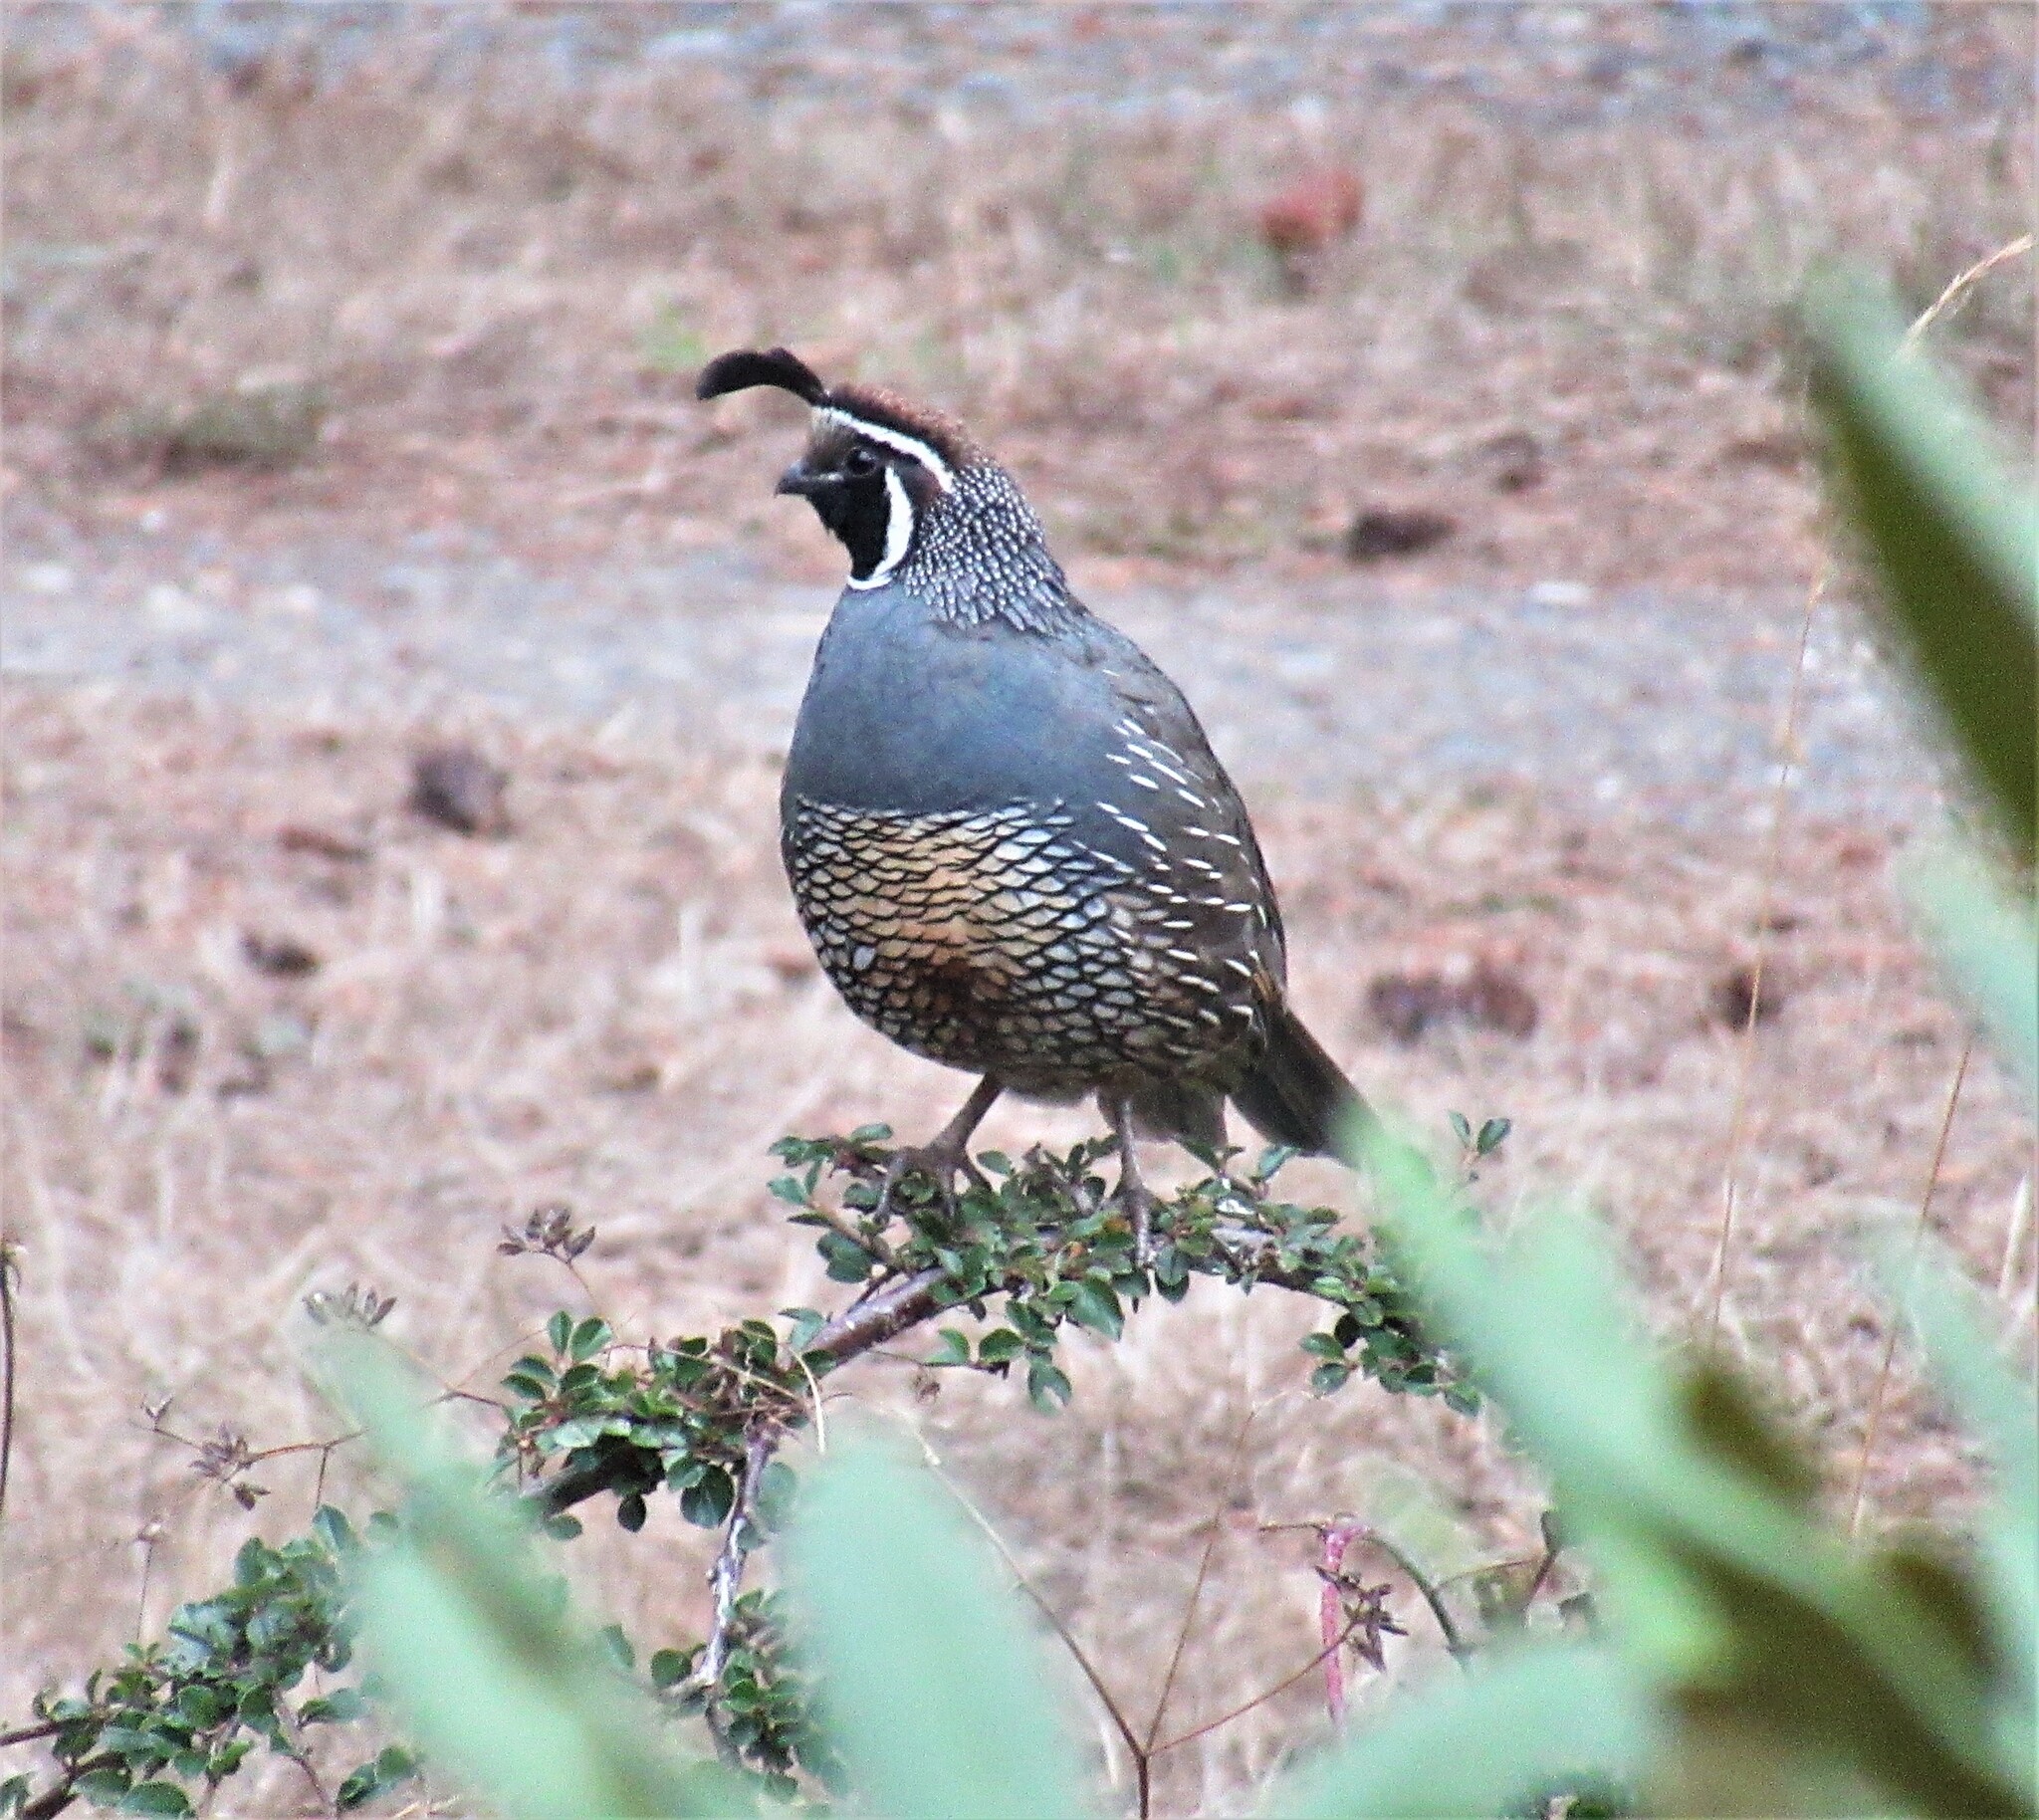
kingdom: Animalia
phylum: Chordata
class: Aves
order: Galliformes
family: Odontophoridae
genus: Callipepla
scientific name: Callipepla californica
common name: California quail
